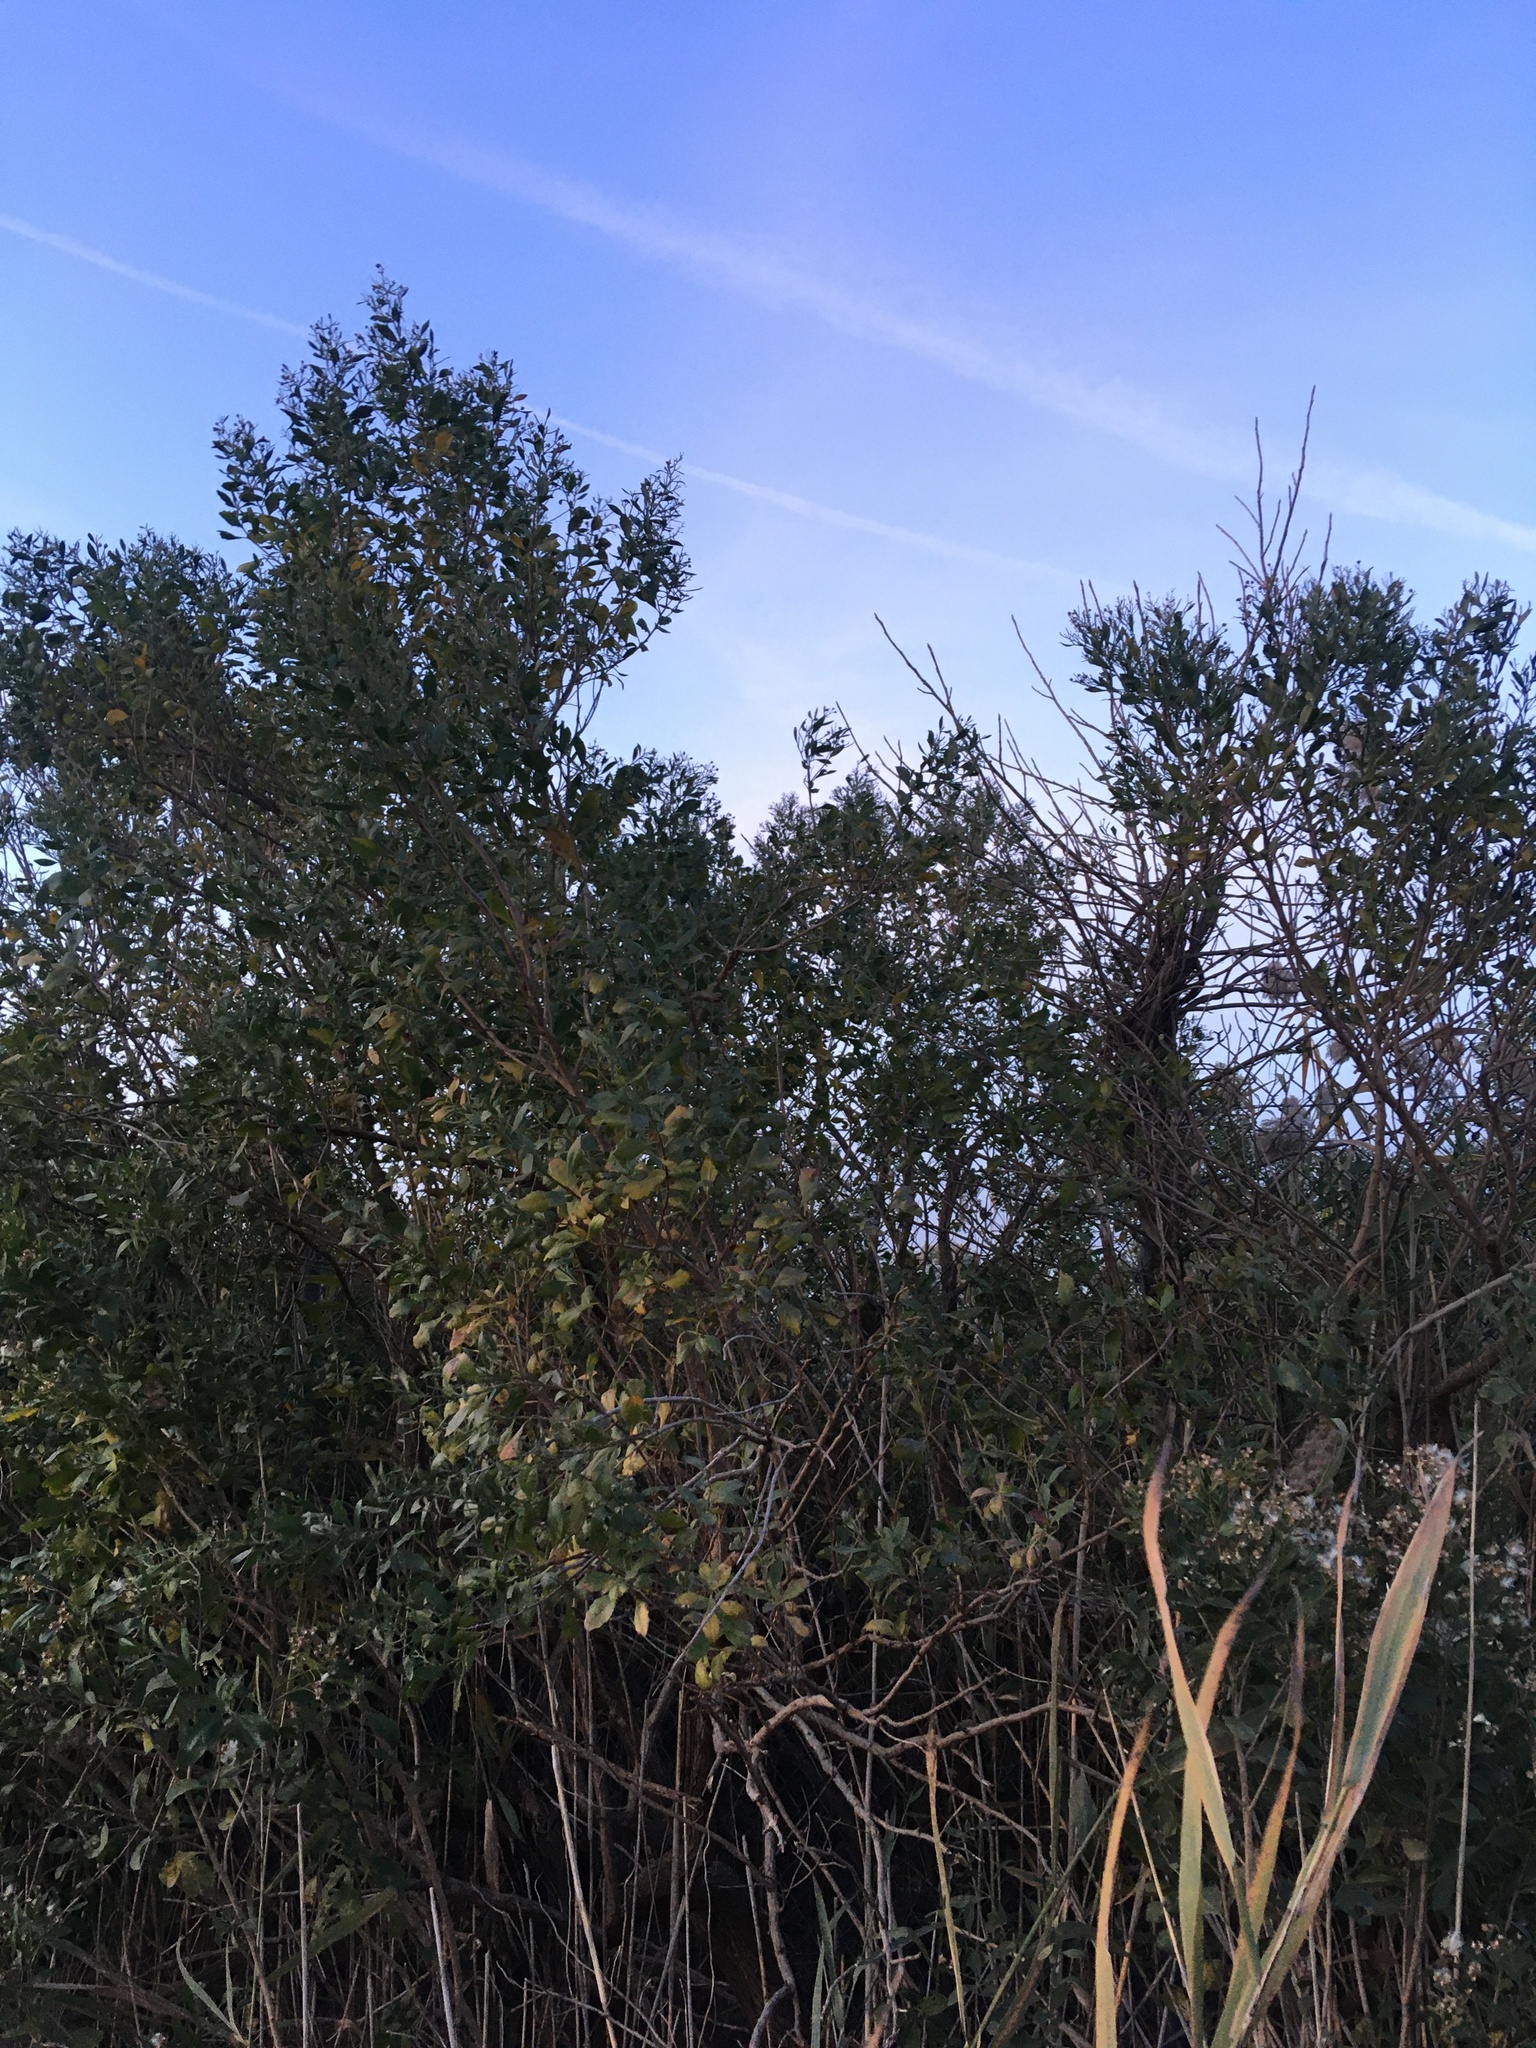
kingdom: Plantae
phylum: Tracheophyta
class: Magnoliopsida
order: Asterales
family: Asteraceae
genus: Baccharis
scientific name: Baccharis halimifolia
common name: Eastern baccharis
